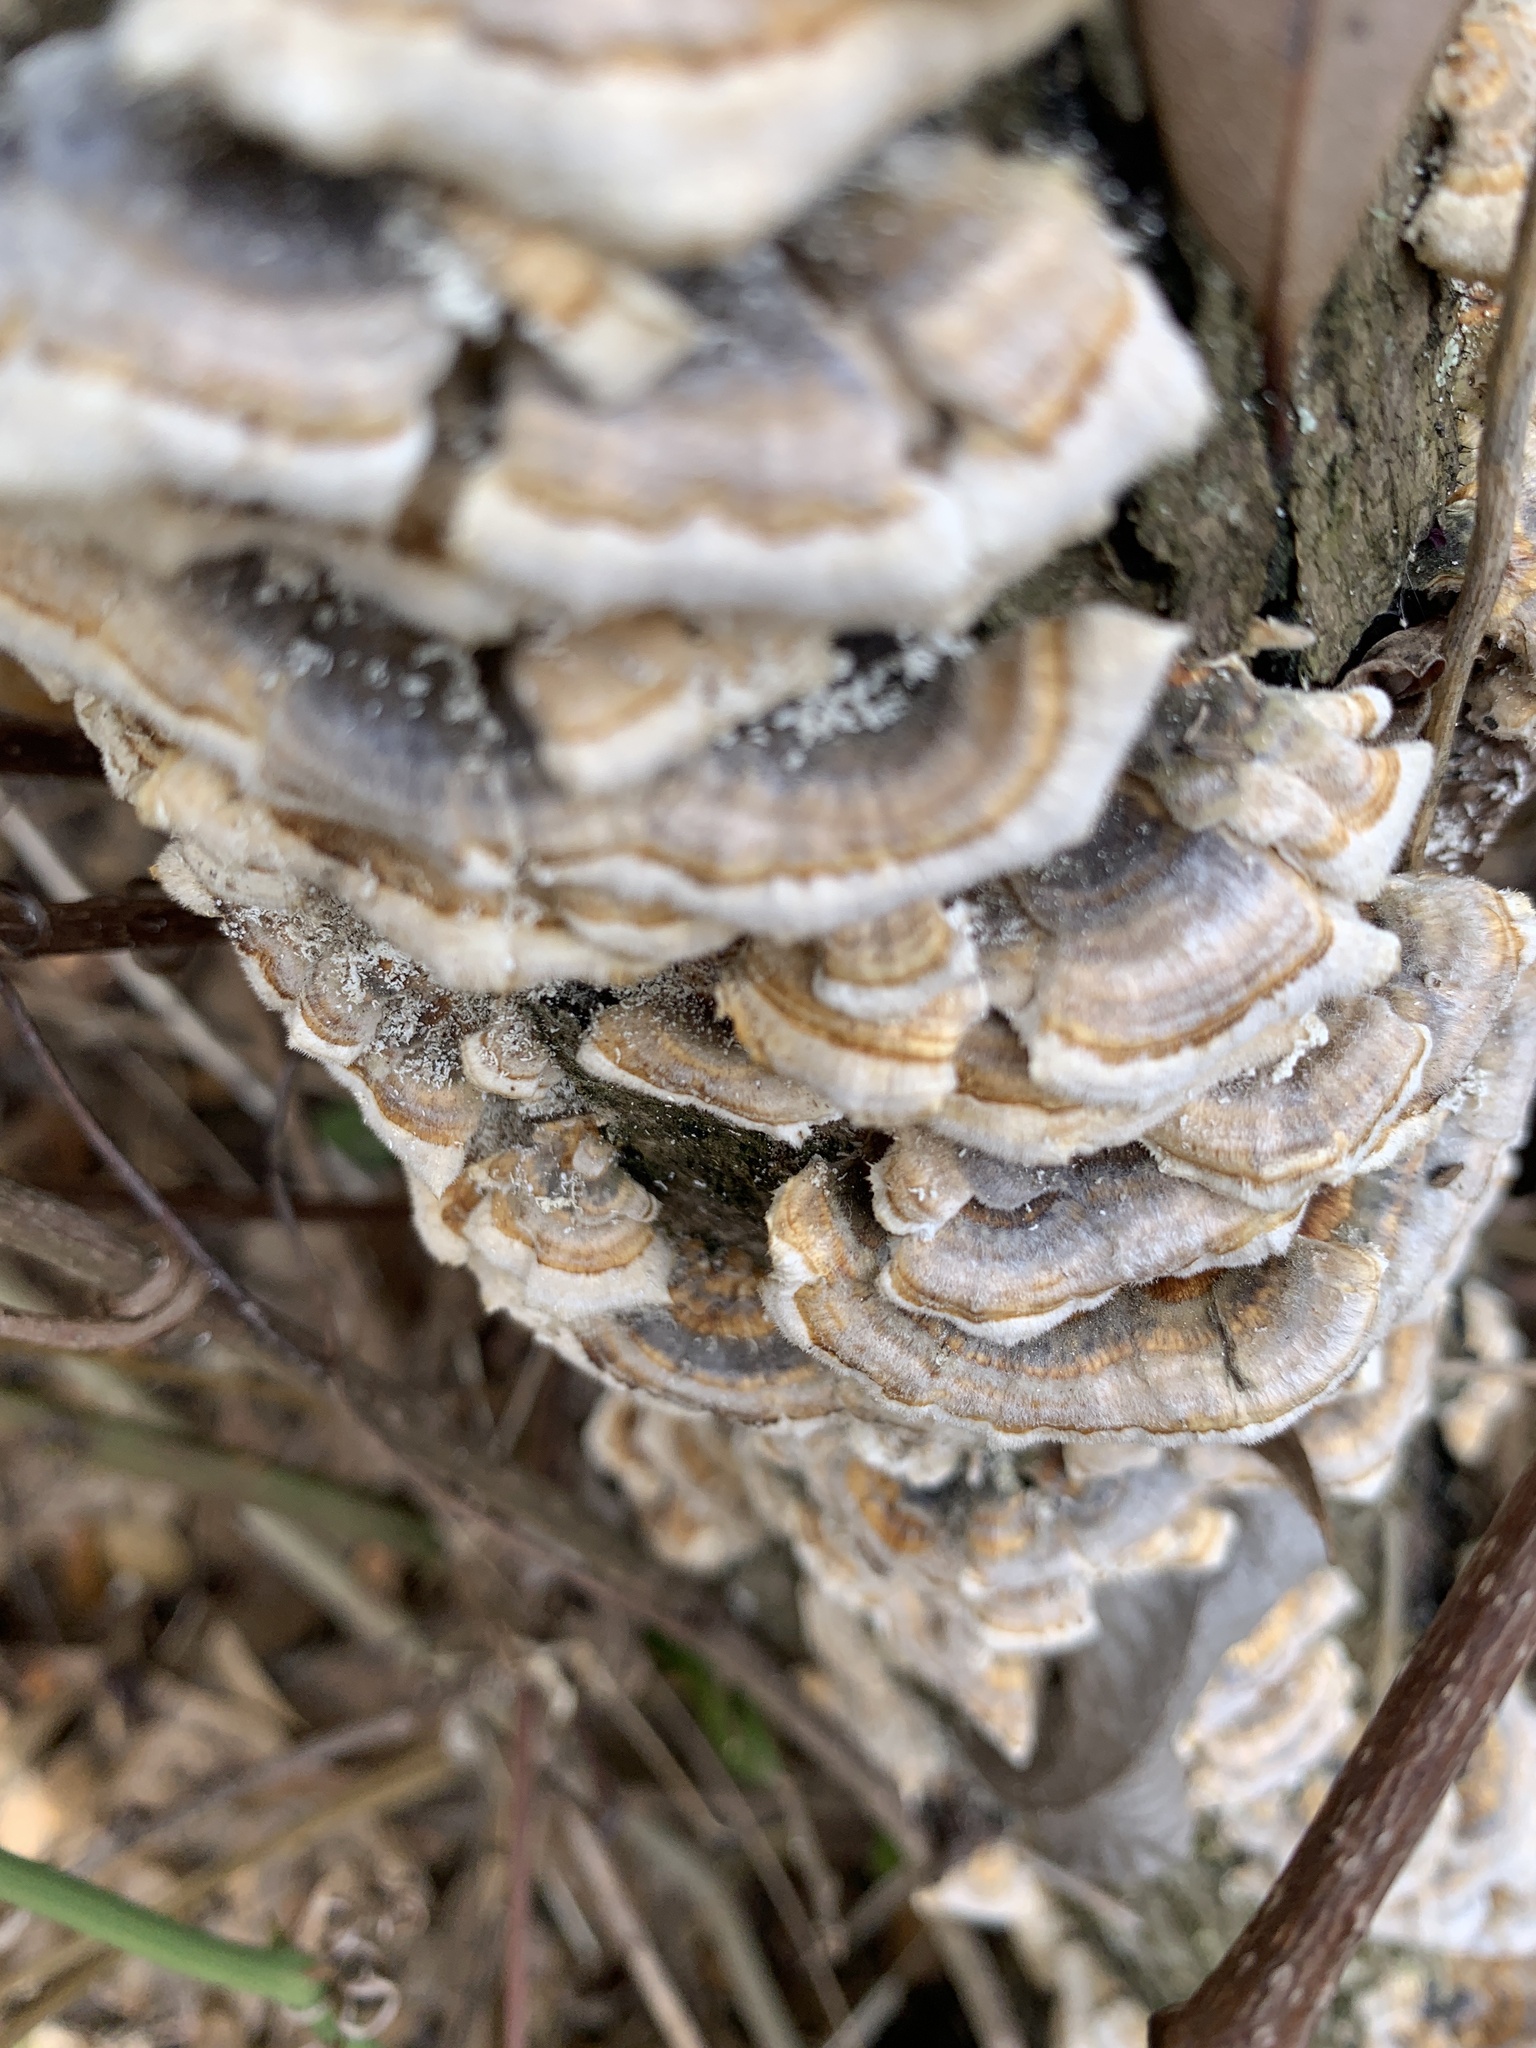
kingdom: Fungi
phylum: Basidiomycota
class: Agaricomycetes
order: Polyporales
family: Polyporaceae
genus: Trametes
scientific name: Trametes versicolor
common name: Turkeytail
